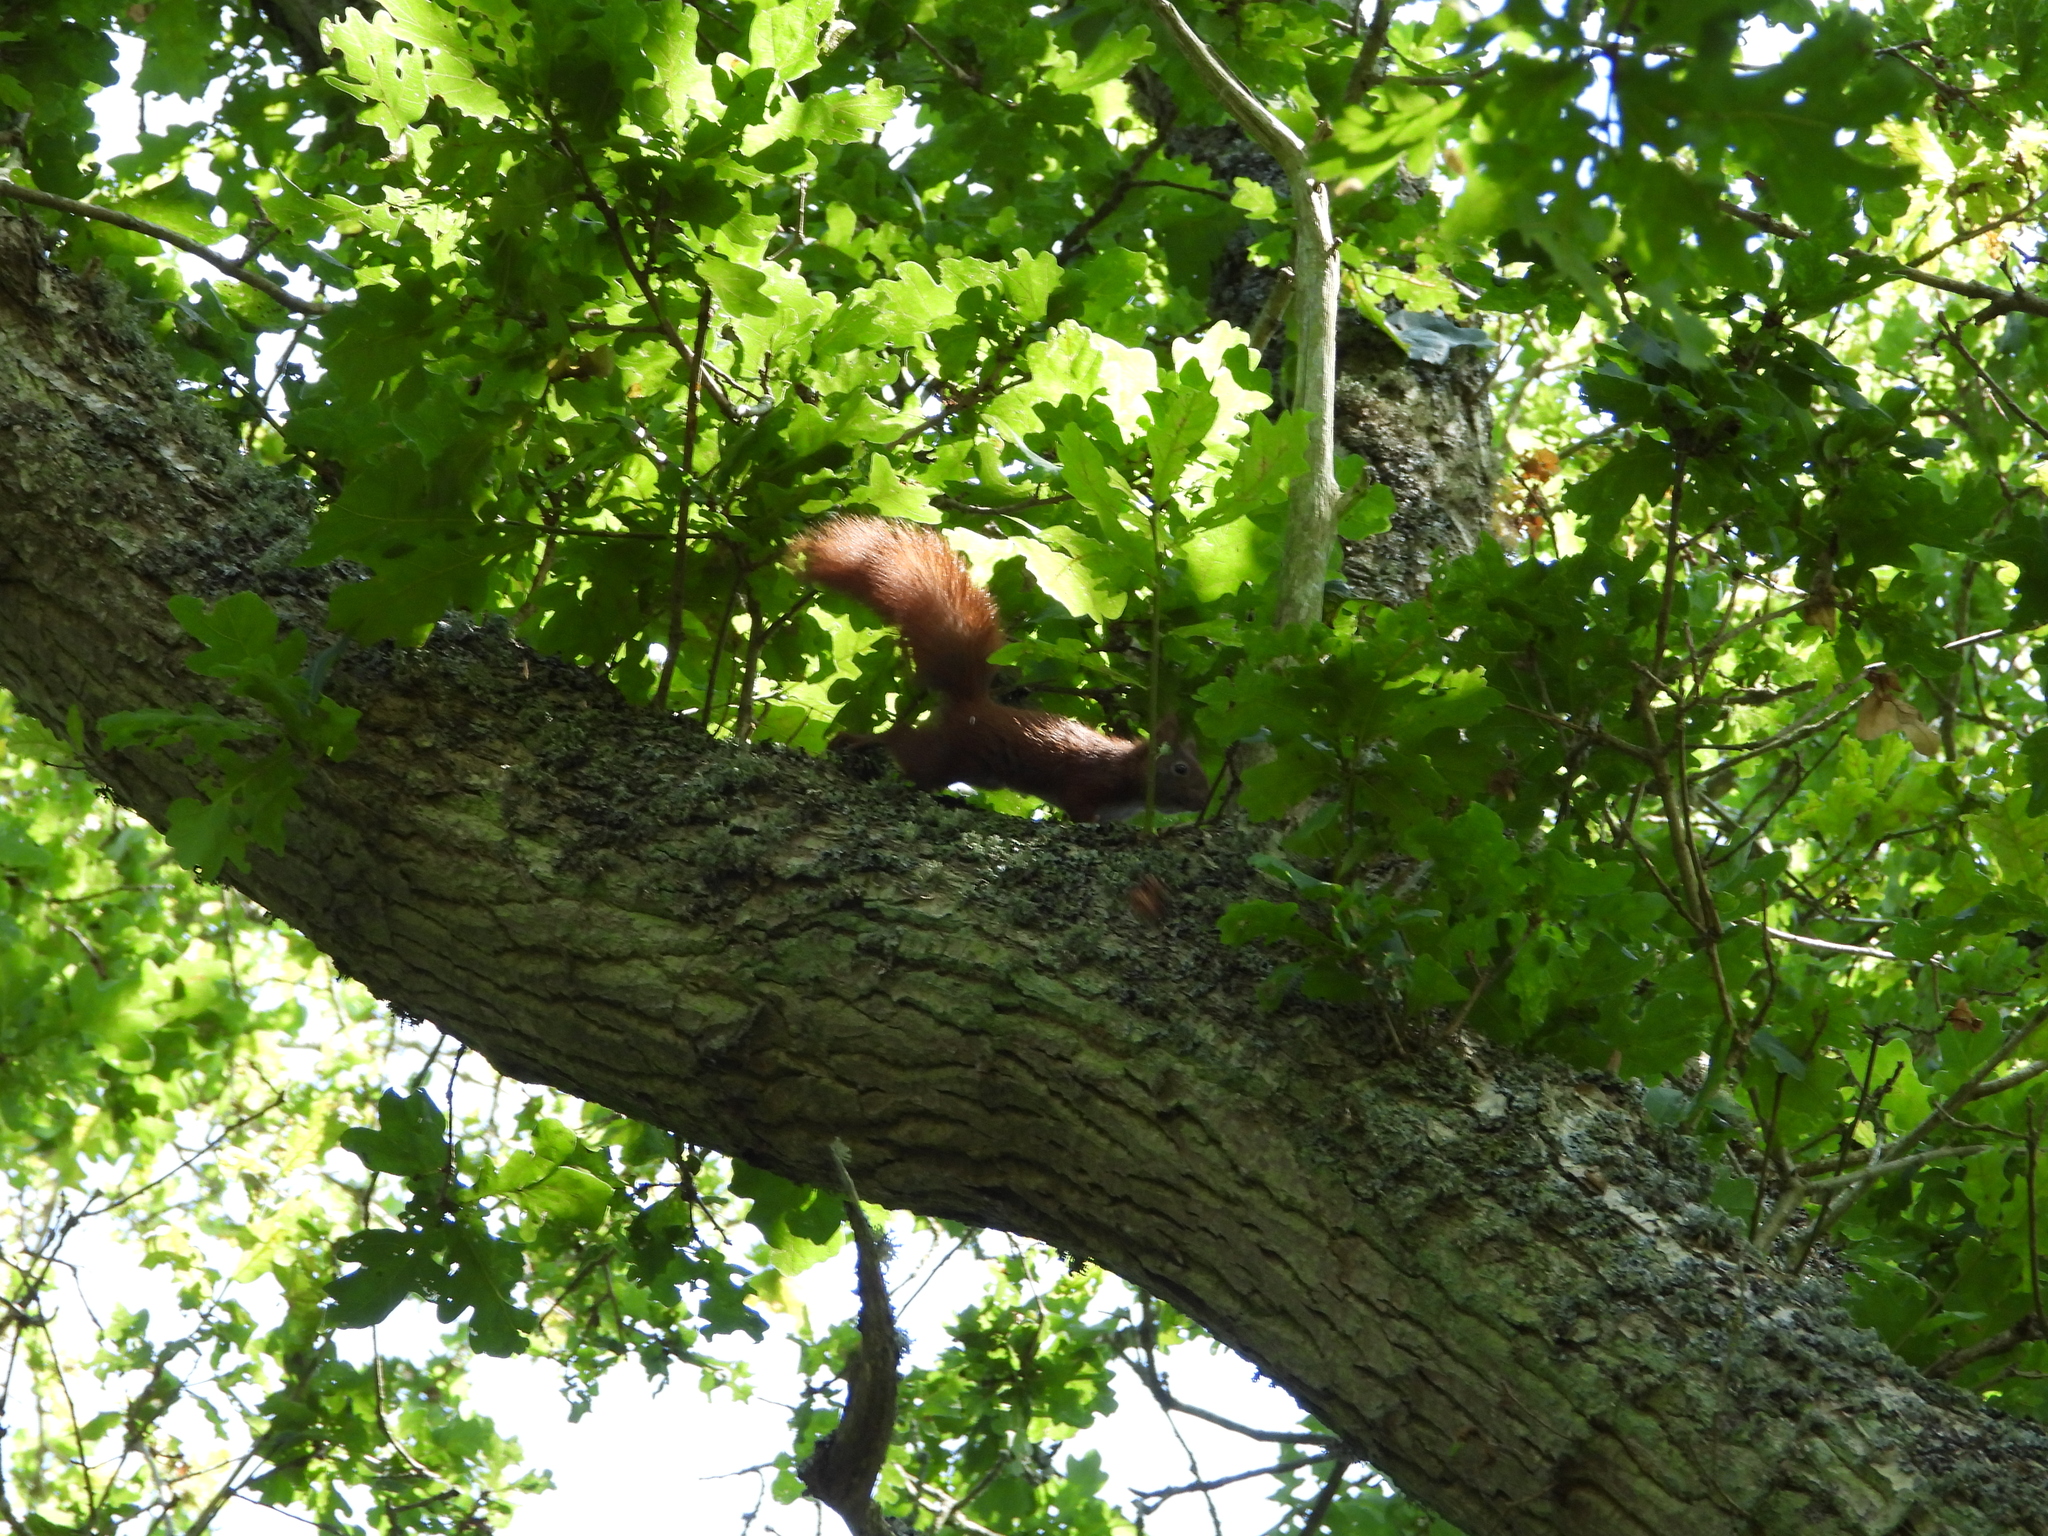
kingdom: Animalia
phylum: Chordata
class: Mammalia
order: Rodentia
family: Sciuridae
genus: Sciurus
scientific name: Sciurus vulgaris
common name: Eurasian red squirrel
